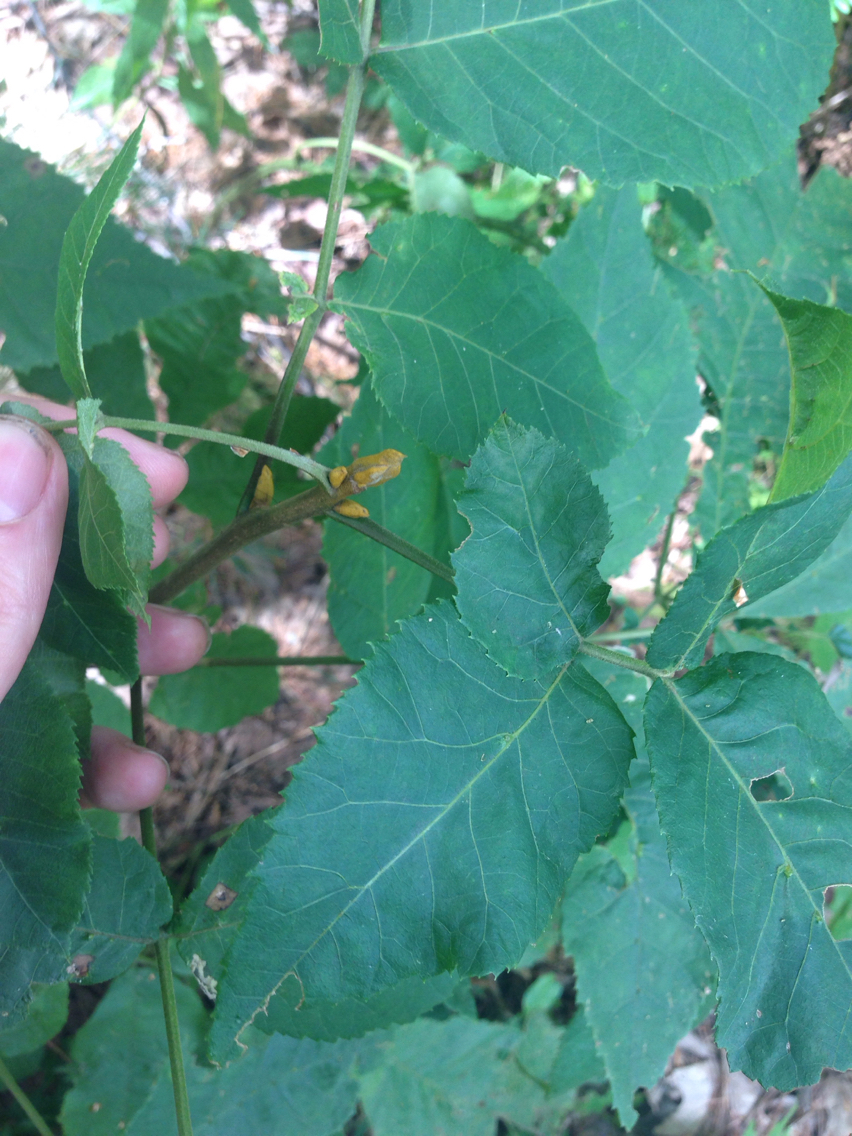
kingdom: Plantae
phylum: Tracheophyta
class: Magnoliopsida
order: Fagales
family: Juglandaceae
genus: Carya
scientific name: Carya cordiformis
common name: Bitternut hickory
